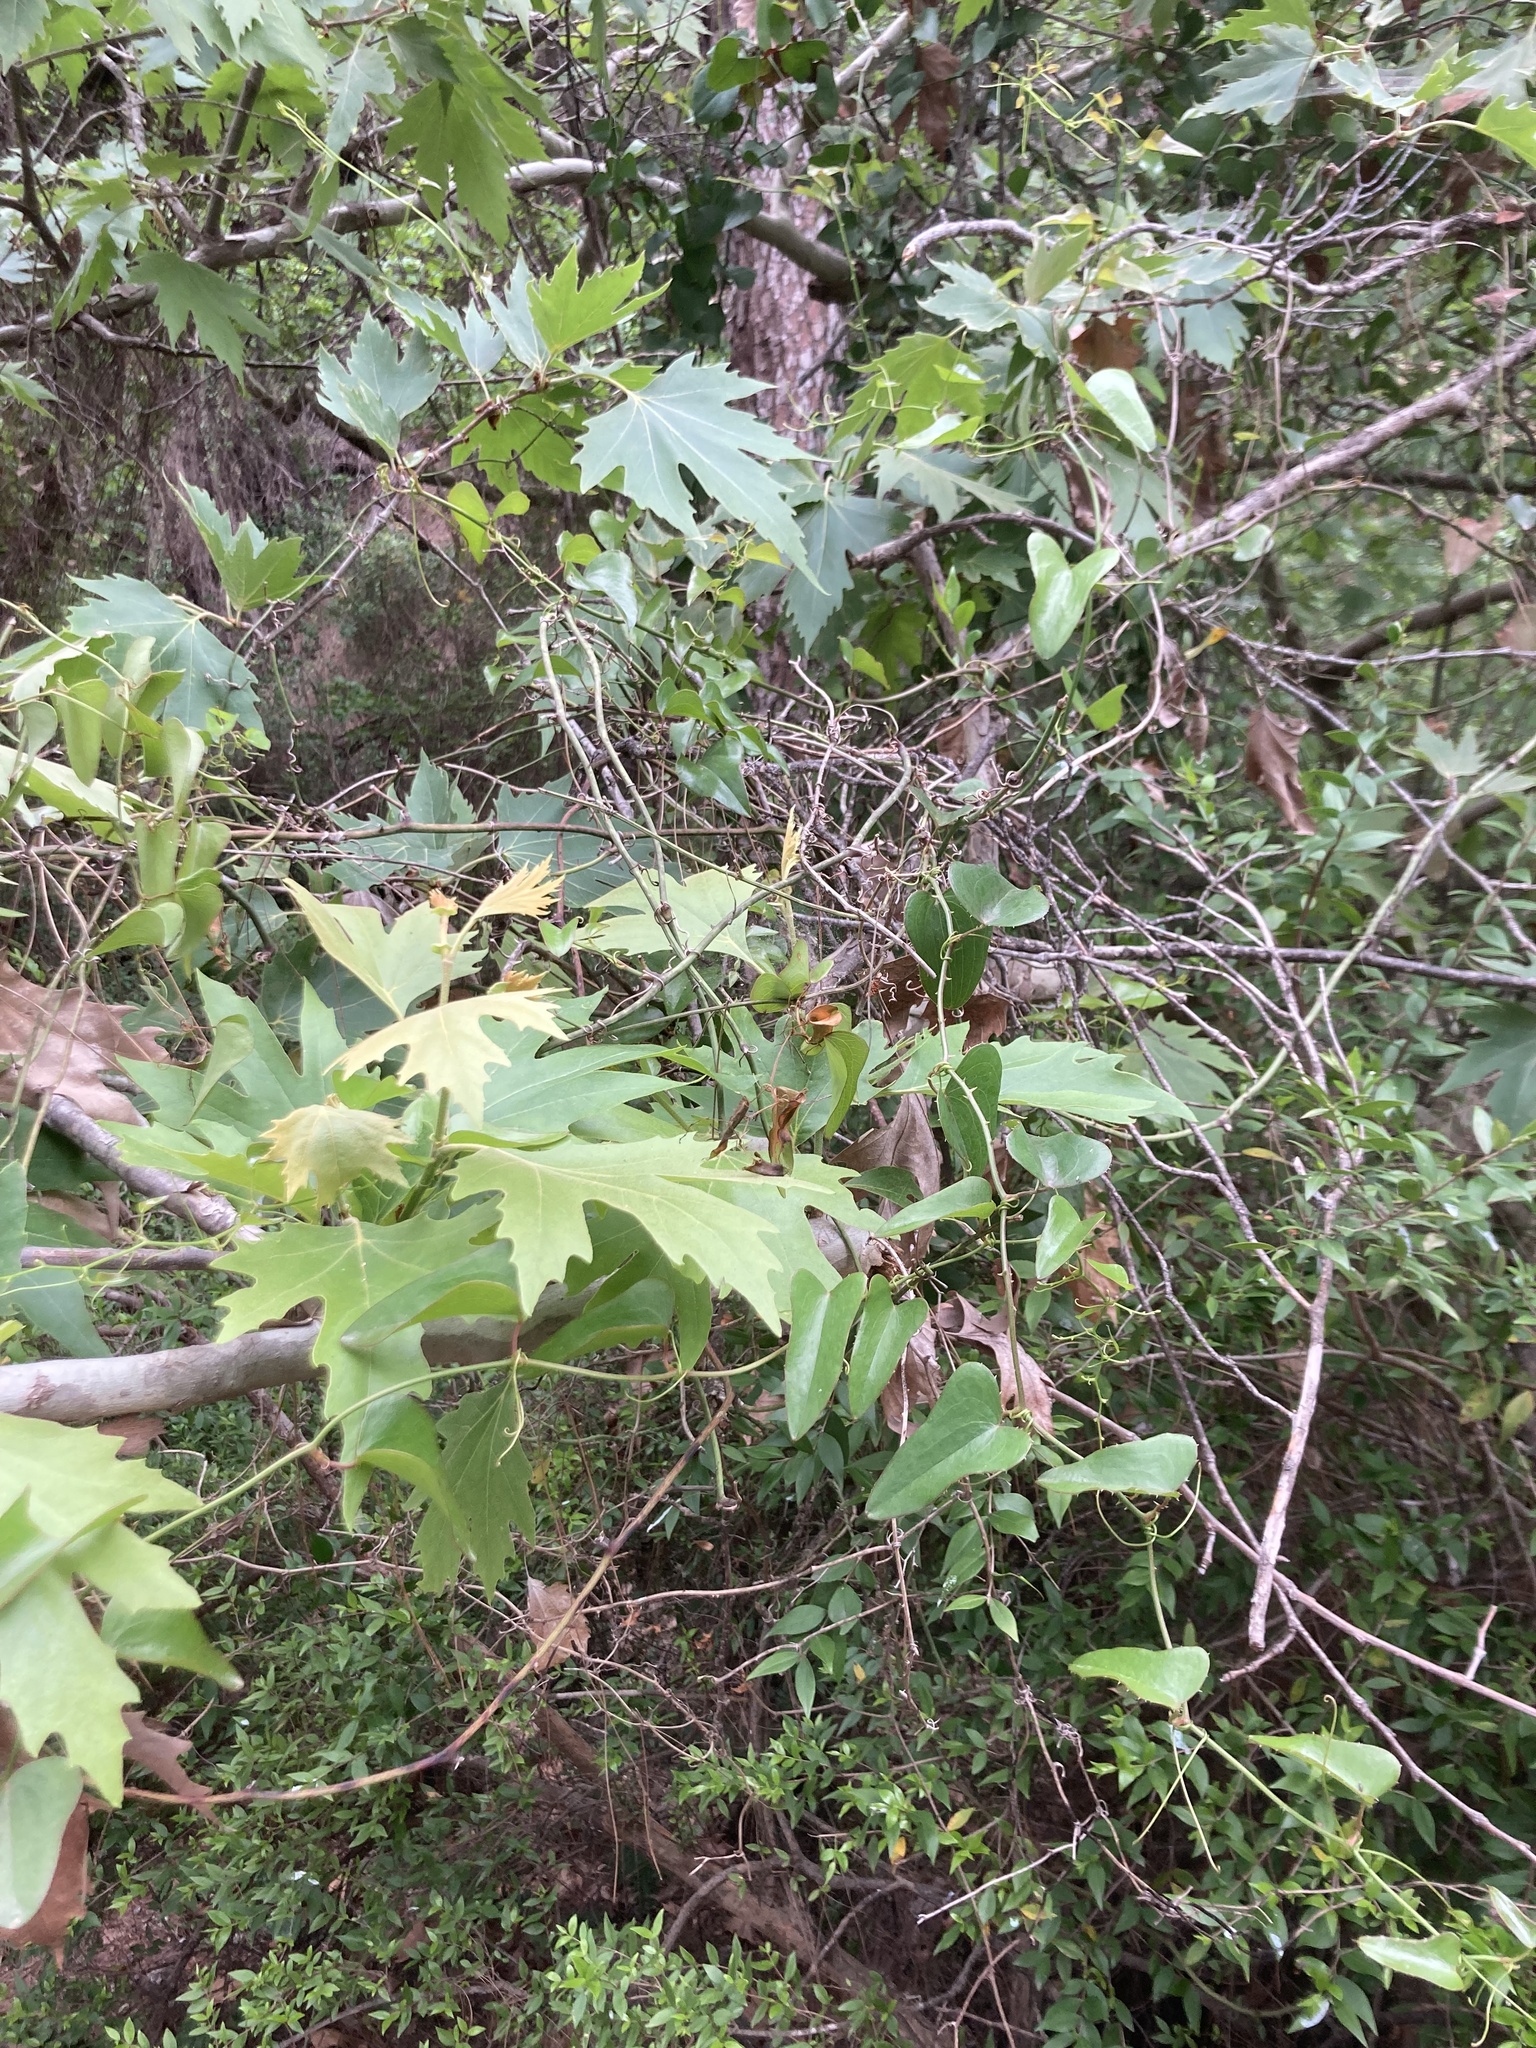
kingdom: Plantae
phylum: Tracheophyta
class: Magnoliopsida
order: Proteales
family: Platanaceae
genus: Platanus
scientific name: Platanus orientalis
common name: Oriental plane
